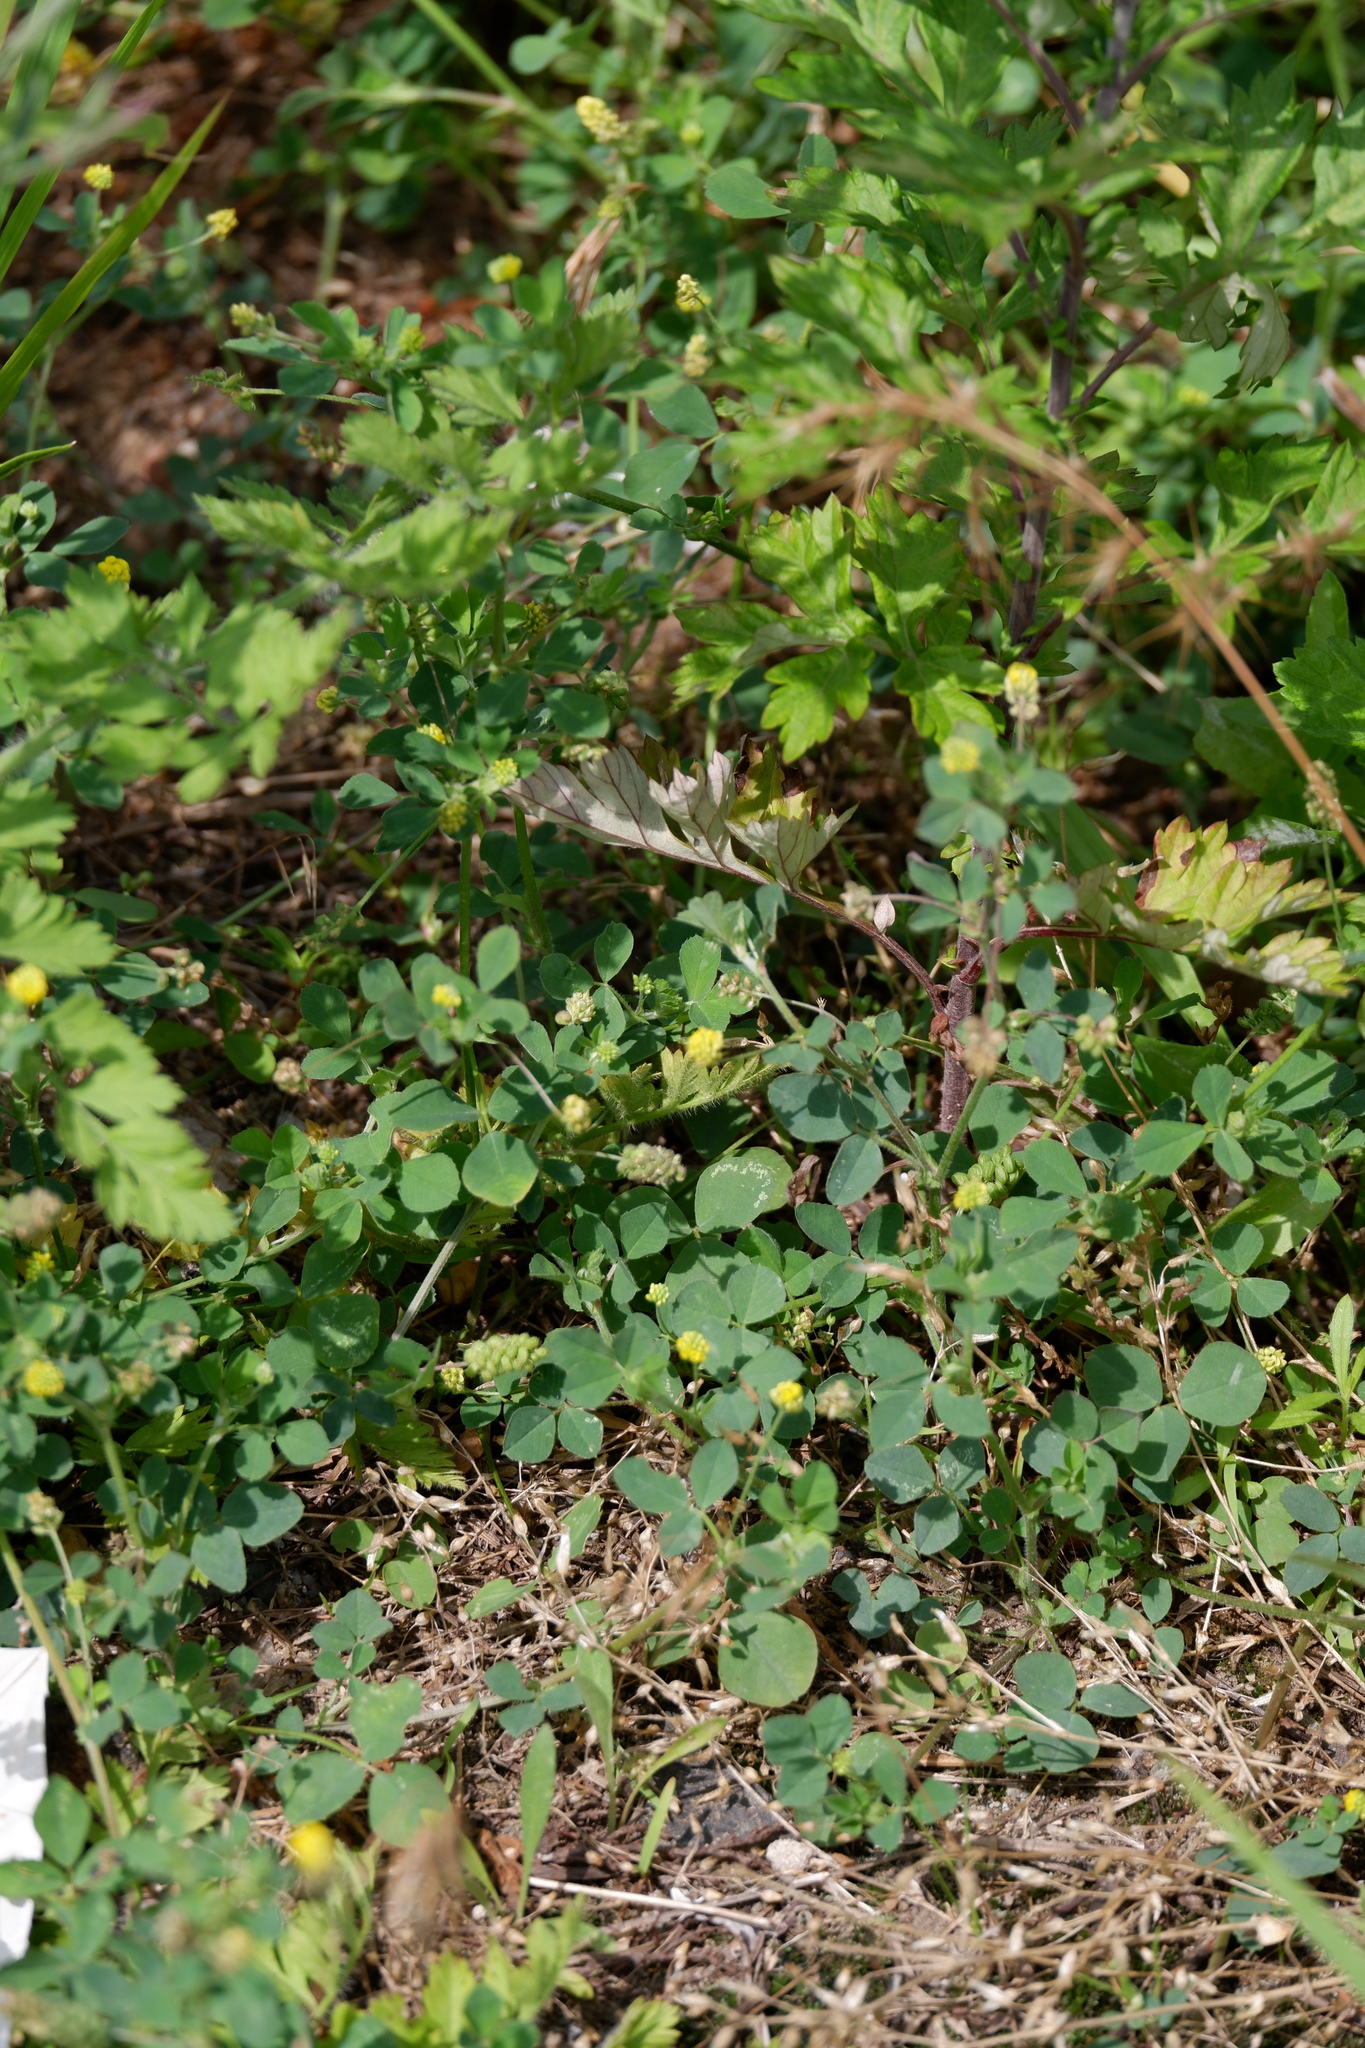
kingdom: Plantae
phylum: Tracheophyta
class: Magnoliopsida
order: Fabales
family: Fabaceae
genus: Medicago
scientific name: Medicago lupulina
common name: Black medick
